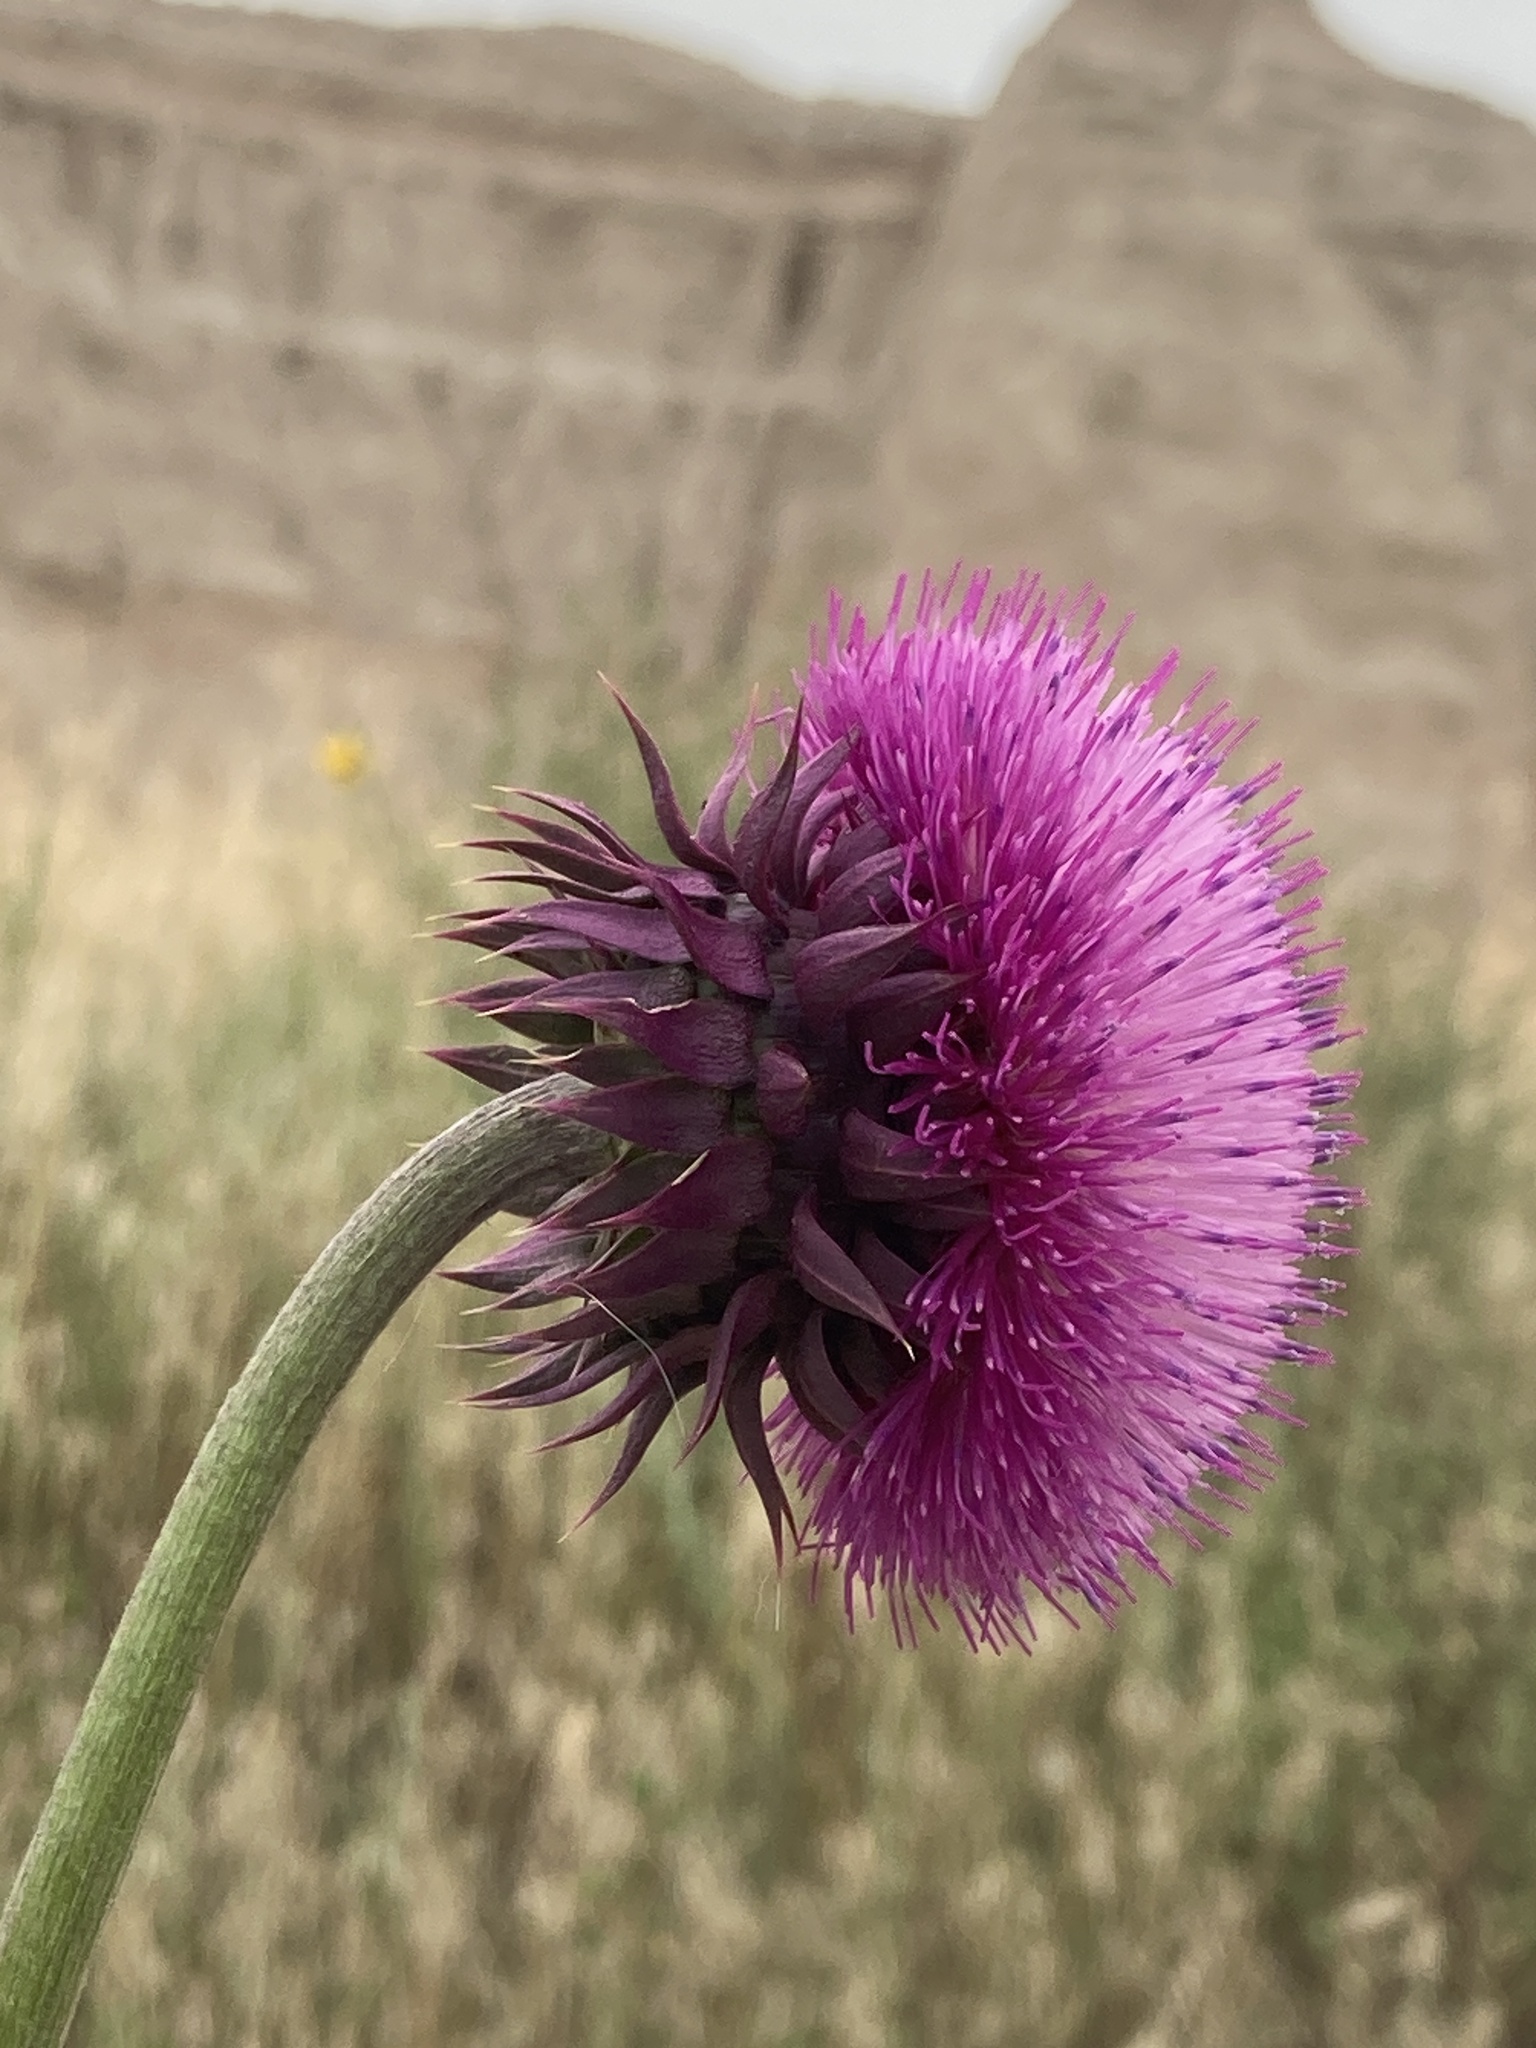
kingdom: Plantae
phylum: Tracheophyta
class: Magnoliopsida
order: Asterales
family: Asteraceae
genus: Carduus
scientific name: Carduus nutans
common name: Musk thistle
